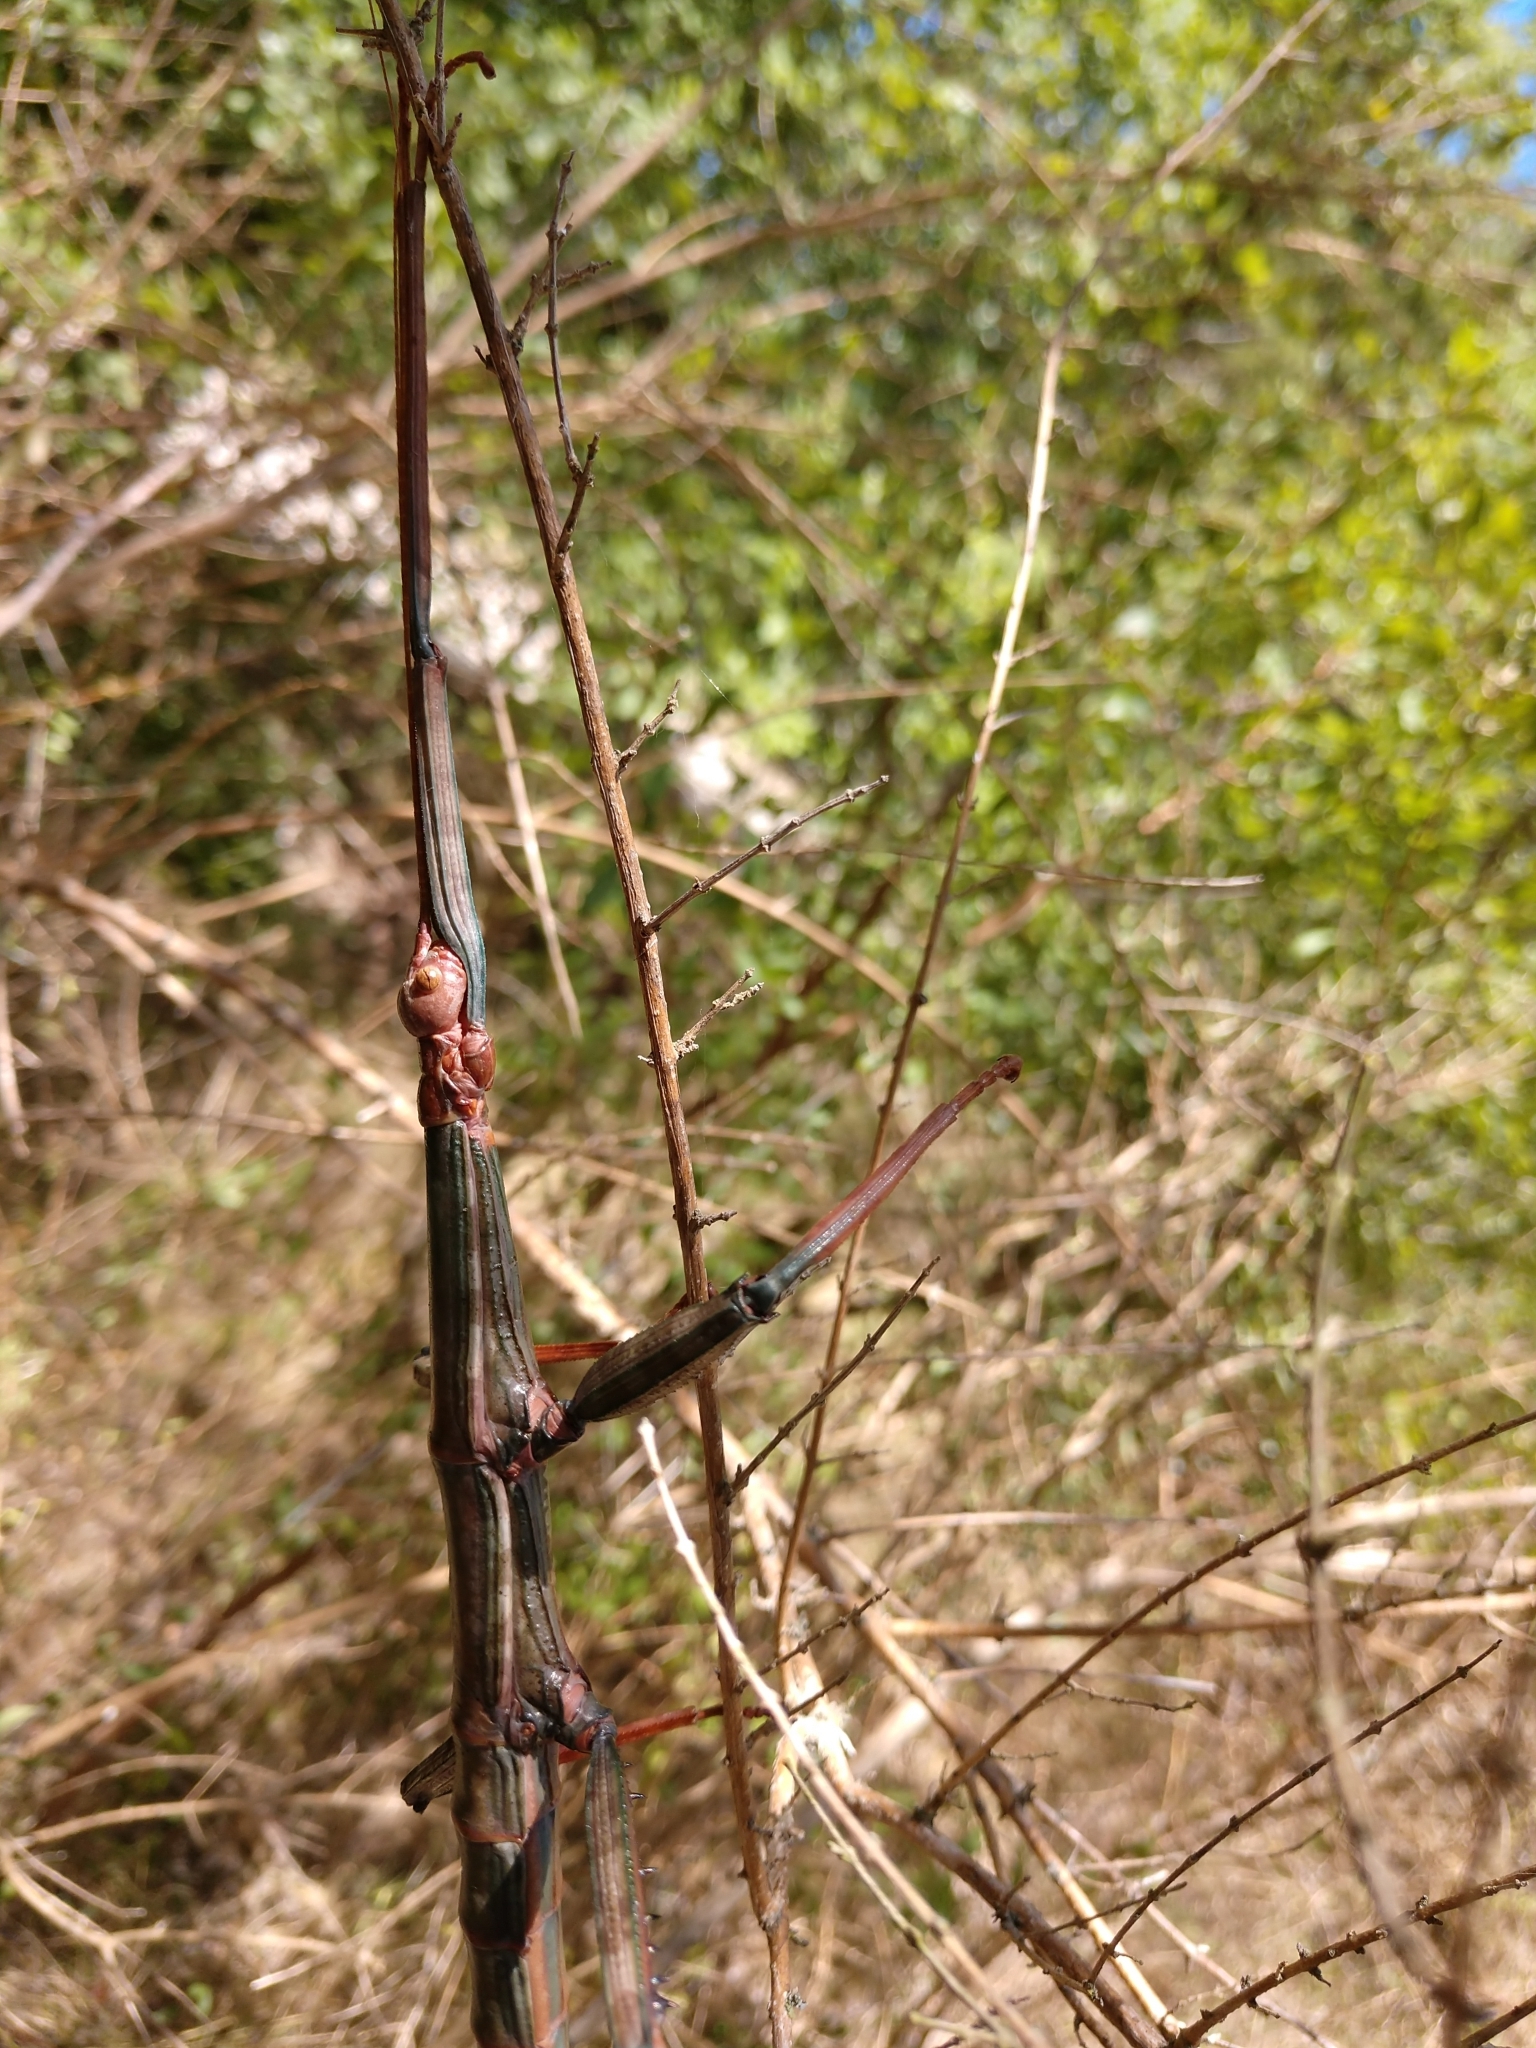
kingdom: Animalia
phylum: Arthropoda
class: Insecta
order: Phasmida
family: Diapheromeridae
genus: Megaphasma
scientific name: Megaphasma denticrus
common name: Giant walkingstick
